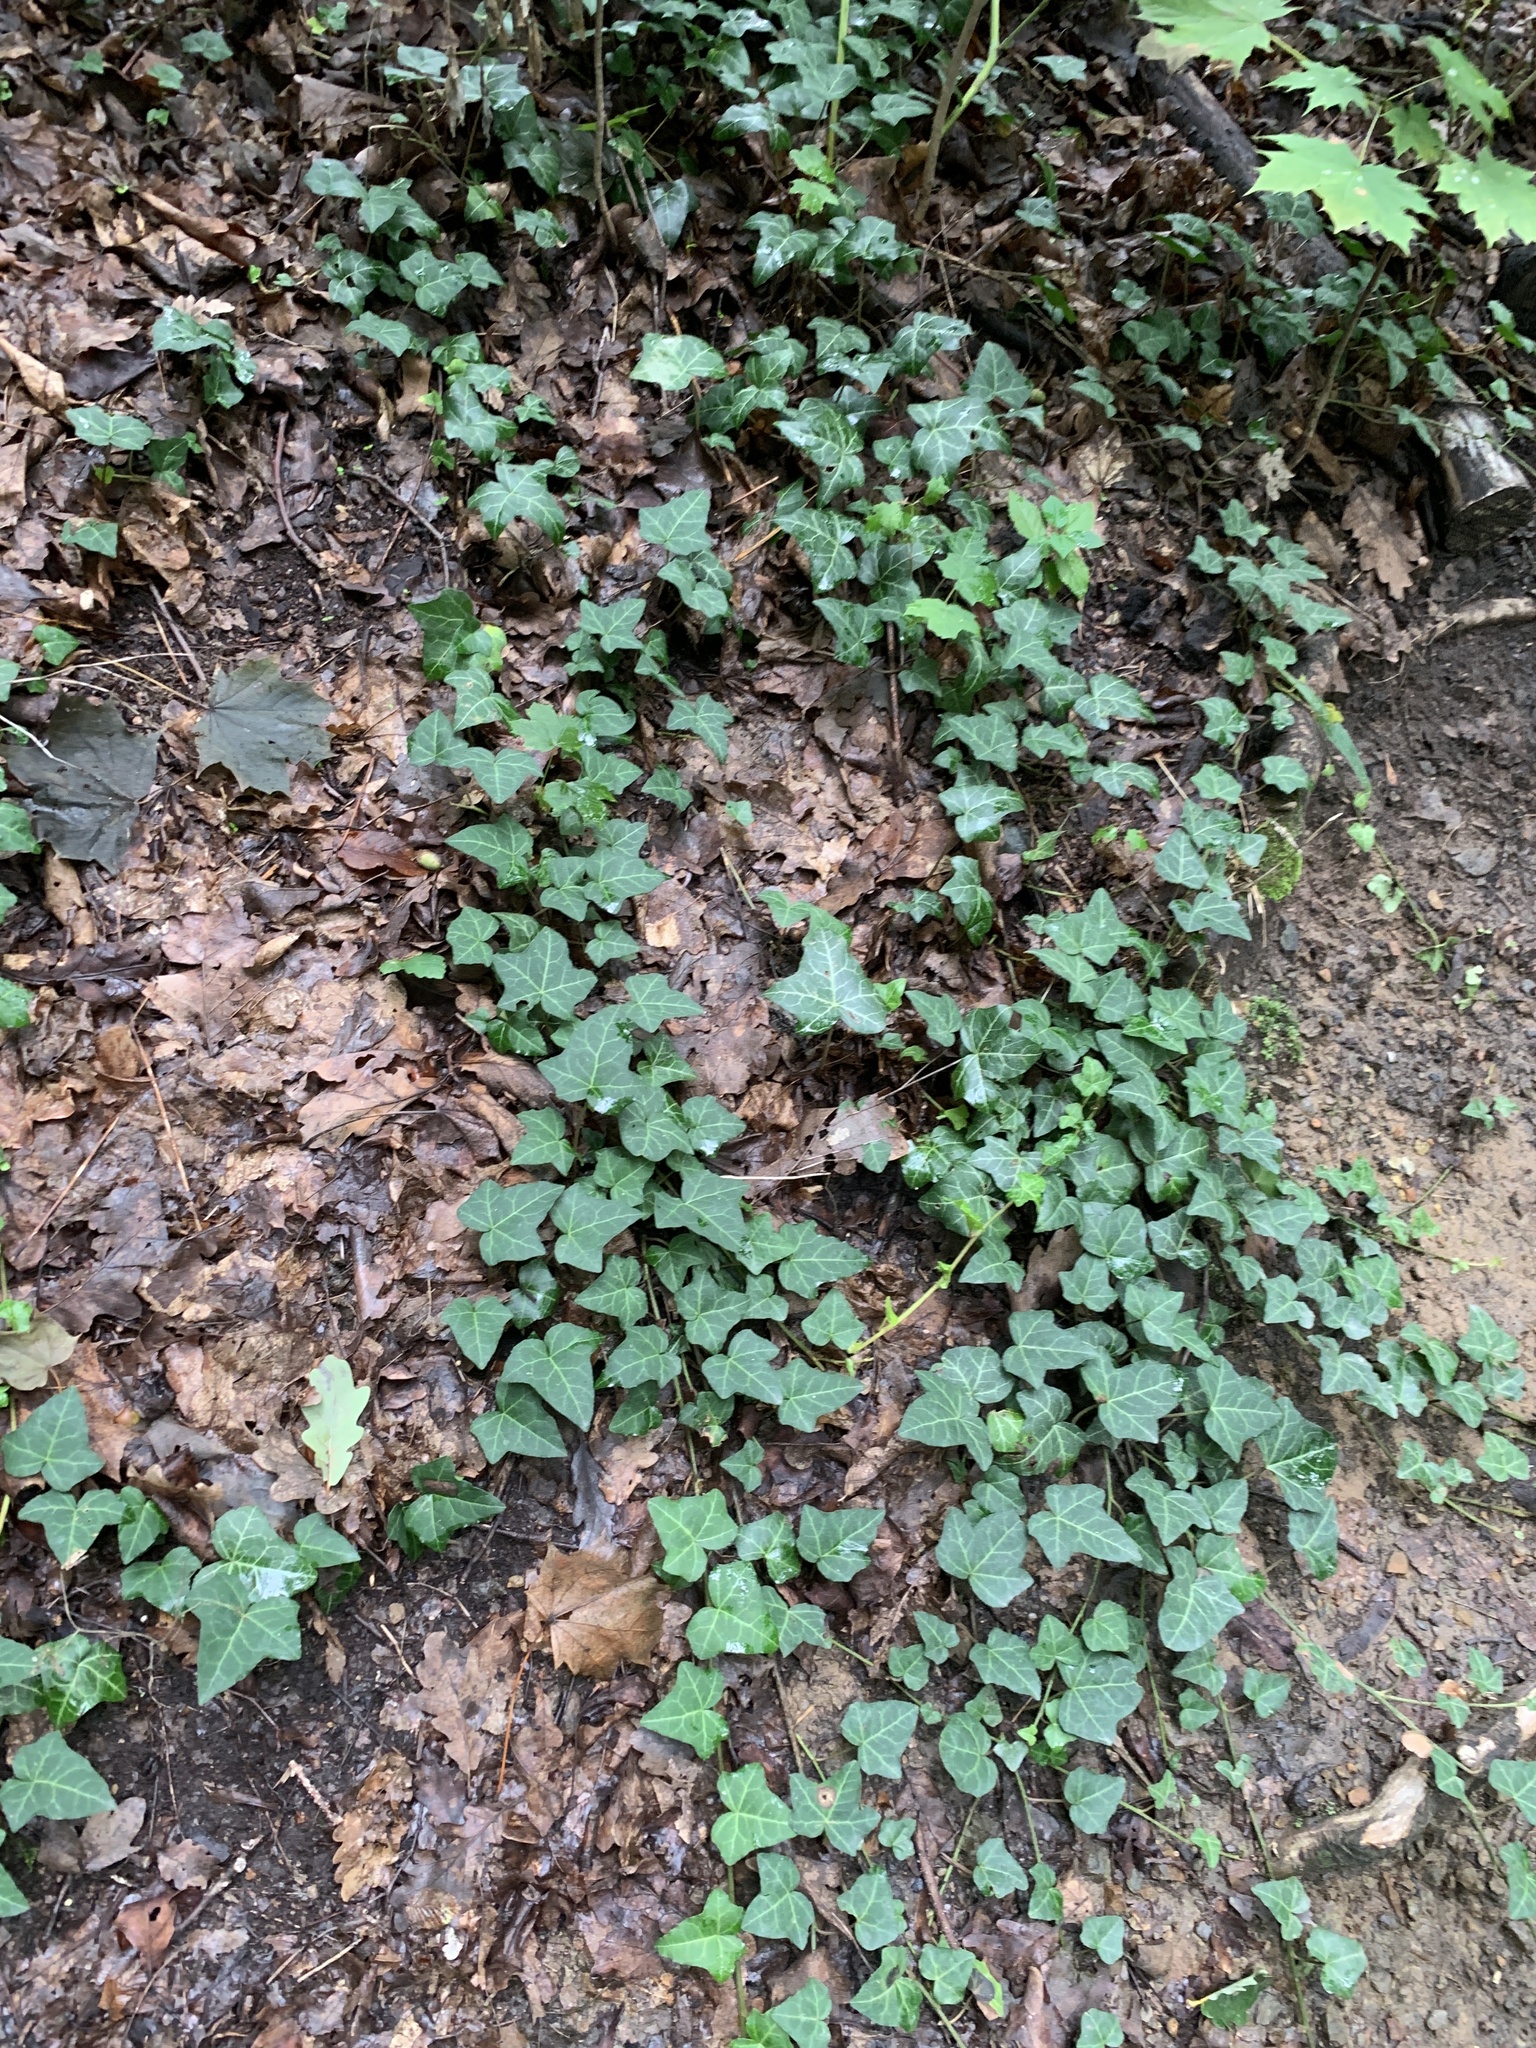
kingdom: Plantae
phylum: Tracheophyta
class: Magnoliopsida
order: Apiales
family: Araliaceae
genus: Hedera
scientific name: Hedera helix
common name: Ivy
